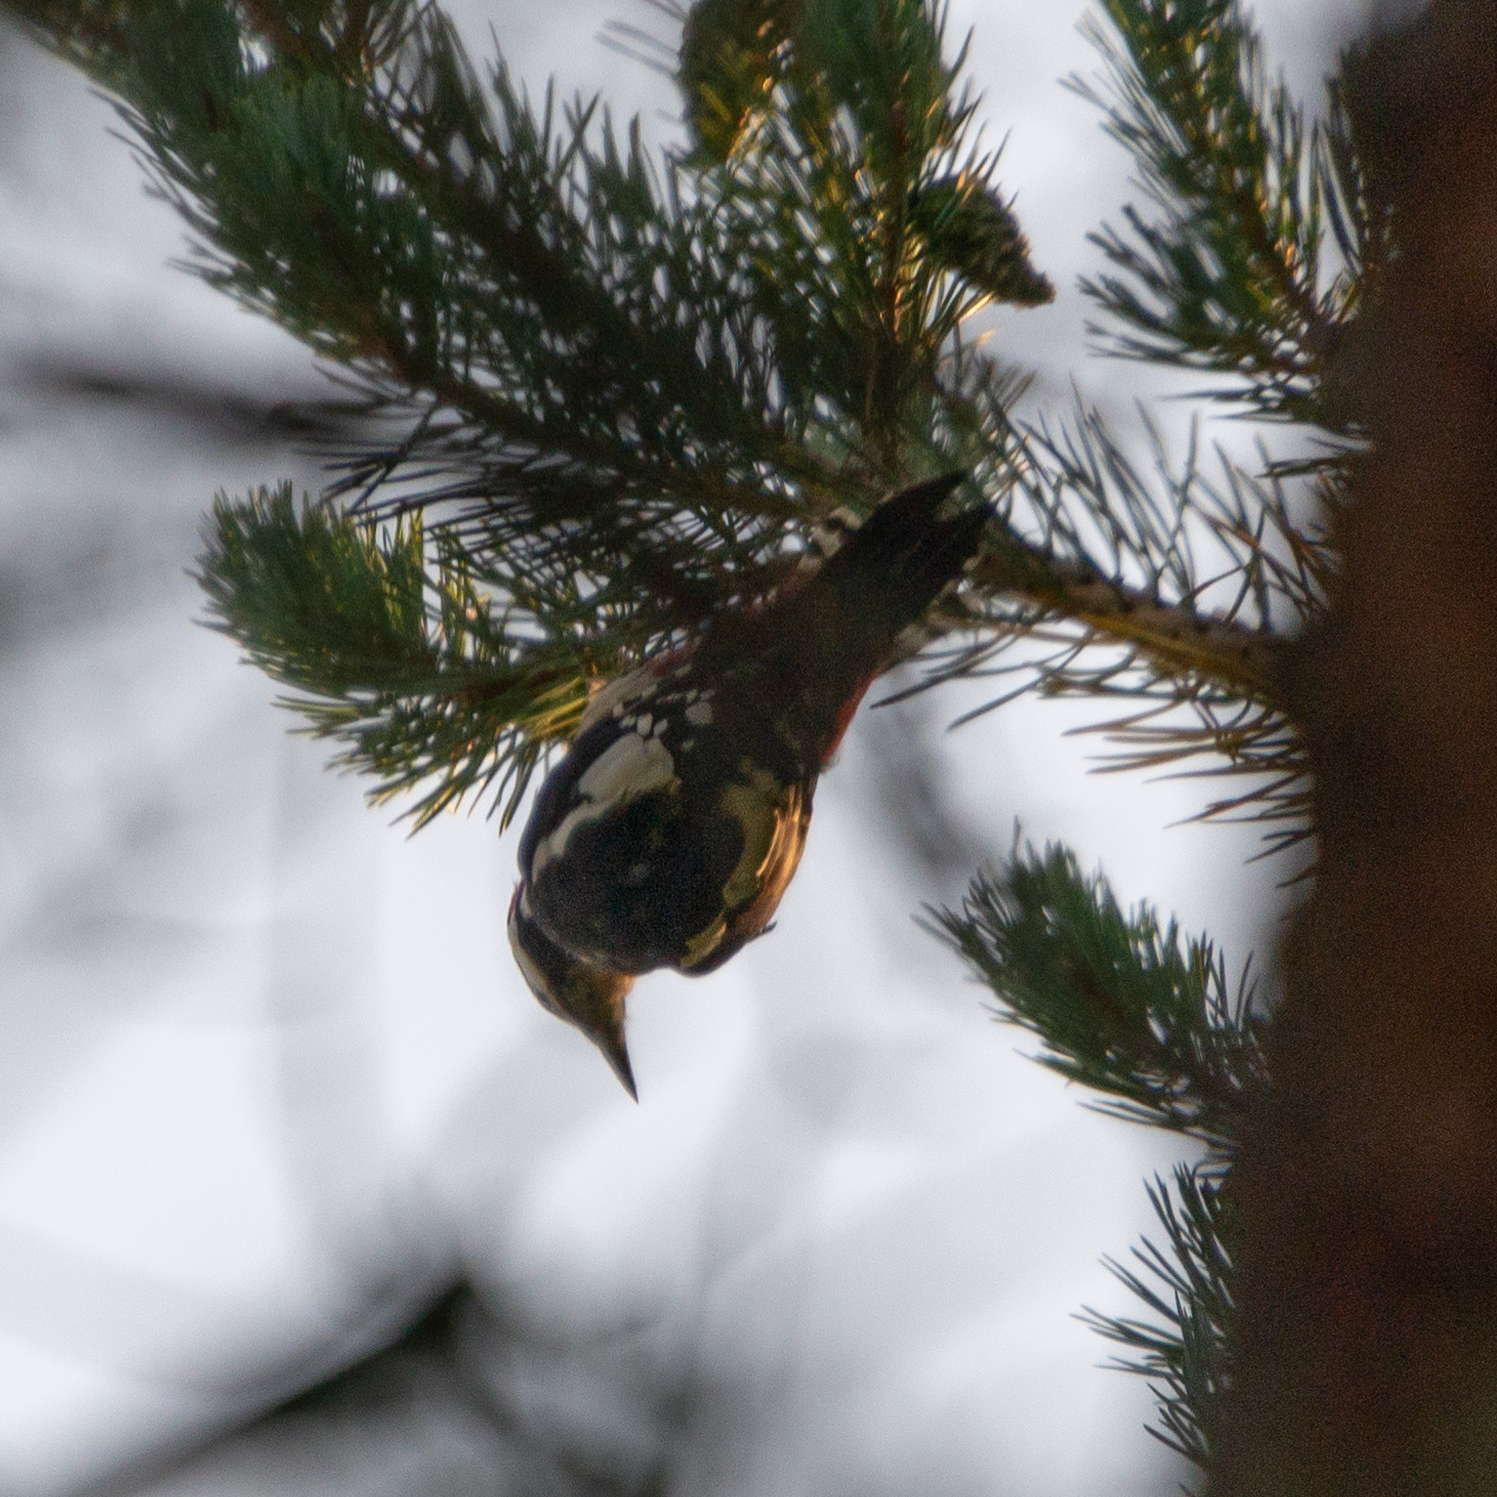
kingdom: Animalia
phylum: Chordata
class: Aves
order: Piciformes
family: Picidae
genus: Dendrocopos
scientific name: Dendrocopos major
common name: Great spotted woodpecker
